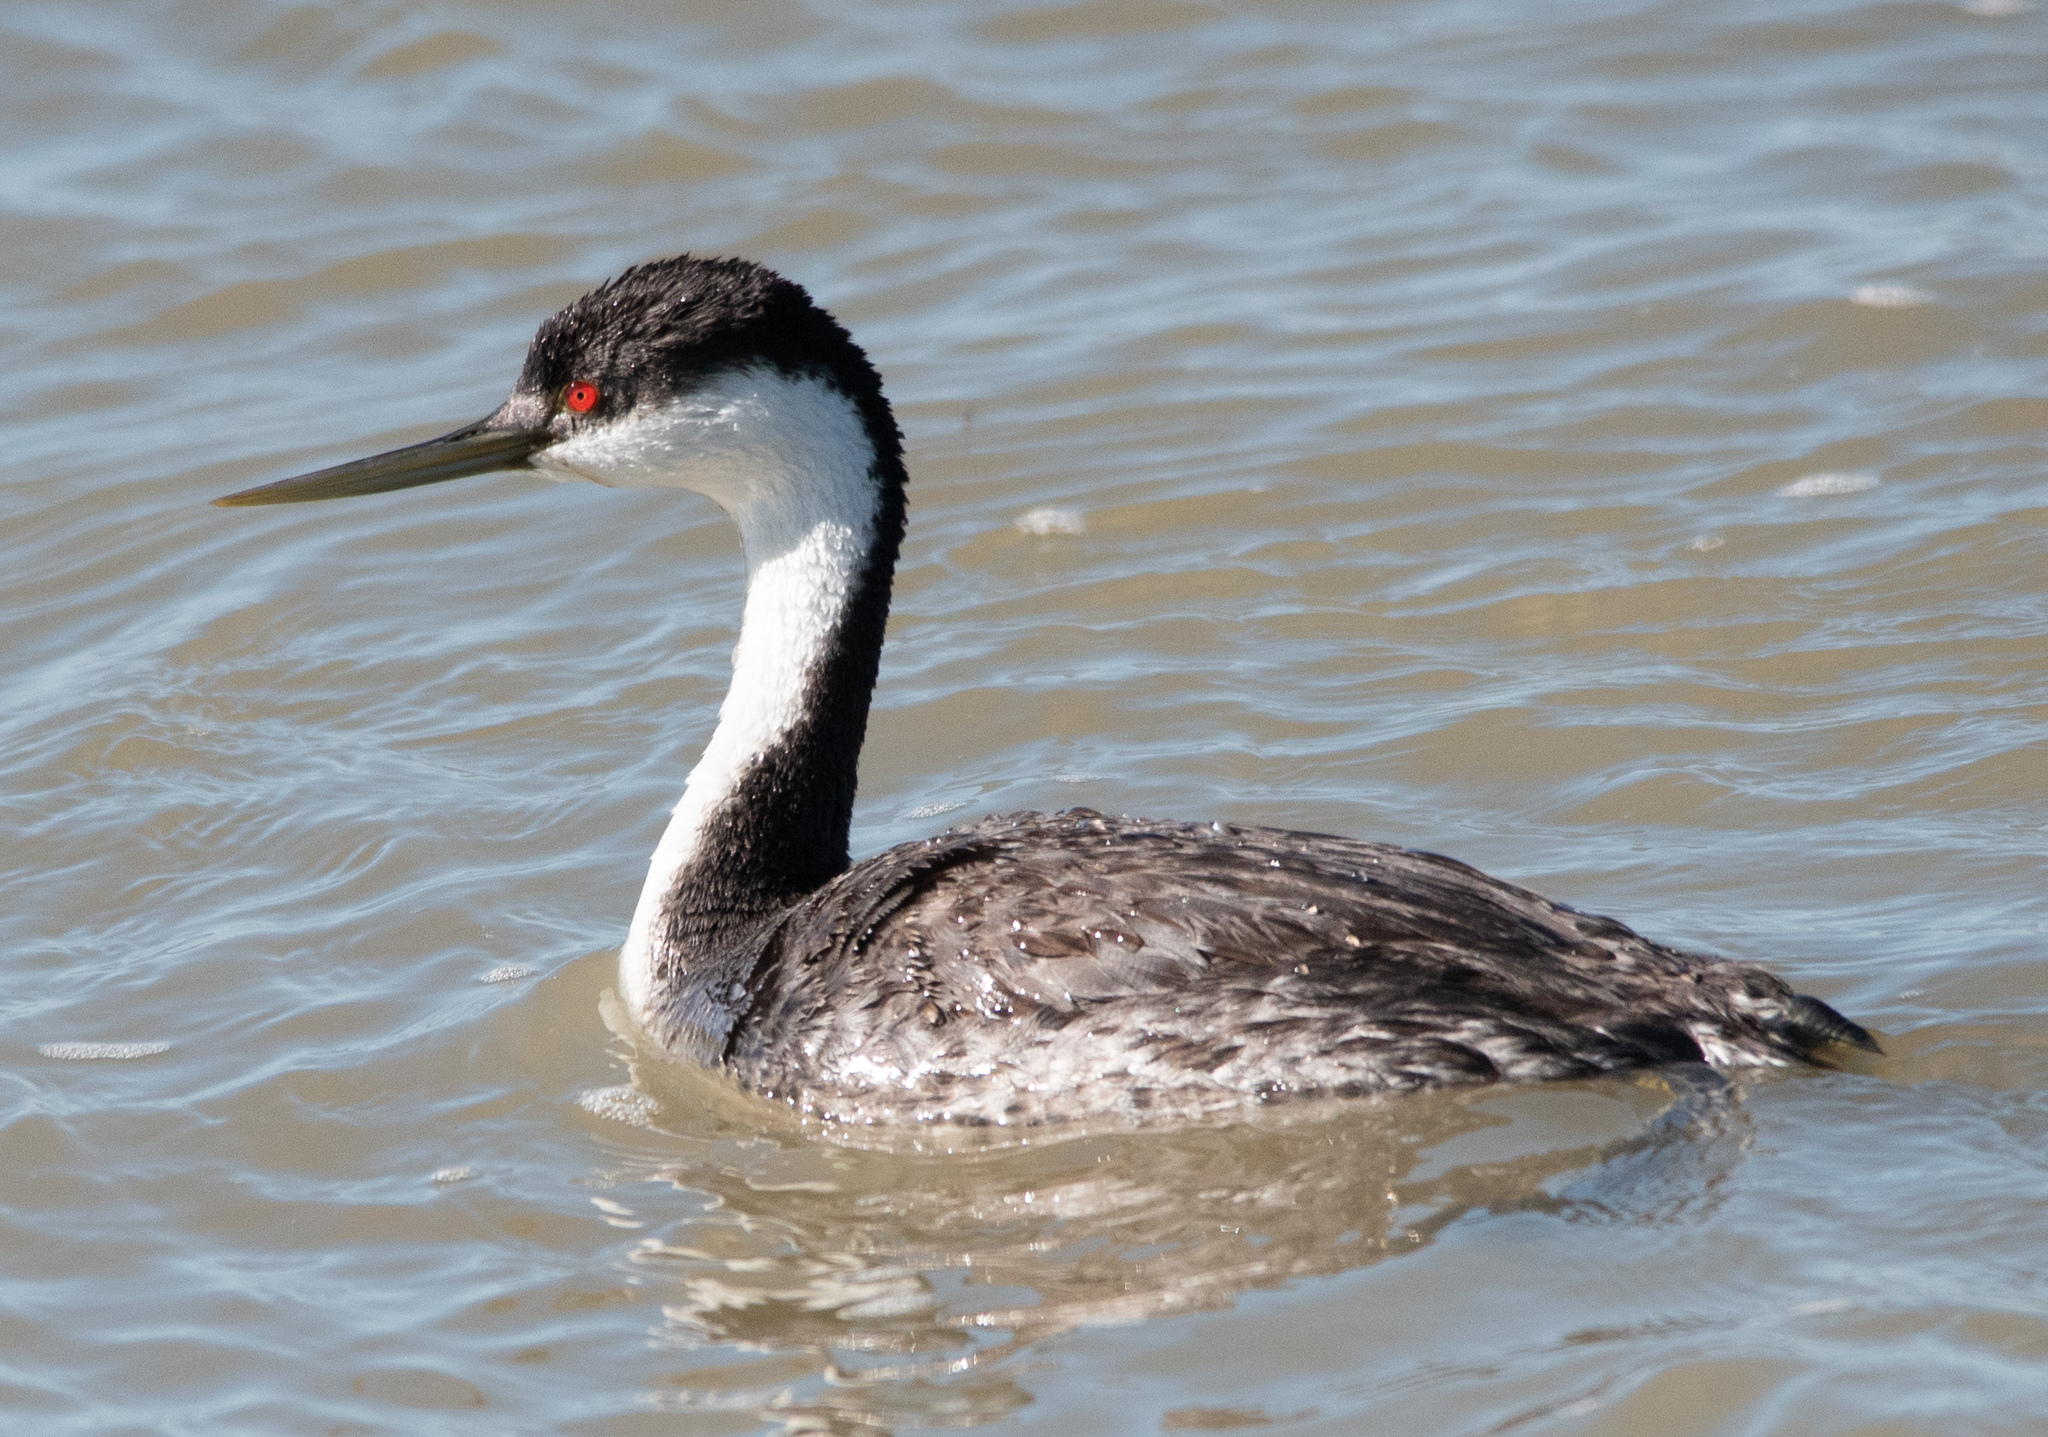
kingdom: Animalia
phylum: Chordata
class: Aves
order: Podicipediformes
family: Podicipedidae
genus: Aechmophorus
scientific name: Aechmophorus occidentalis
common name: Western grebe
